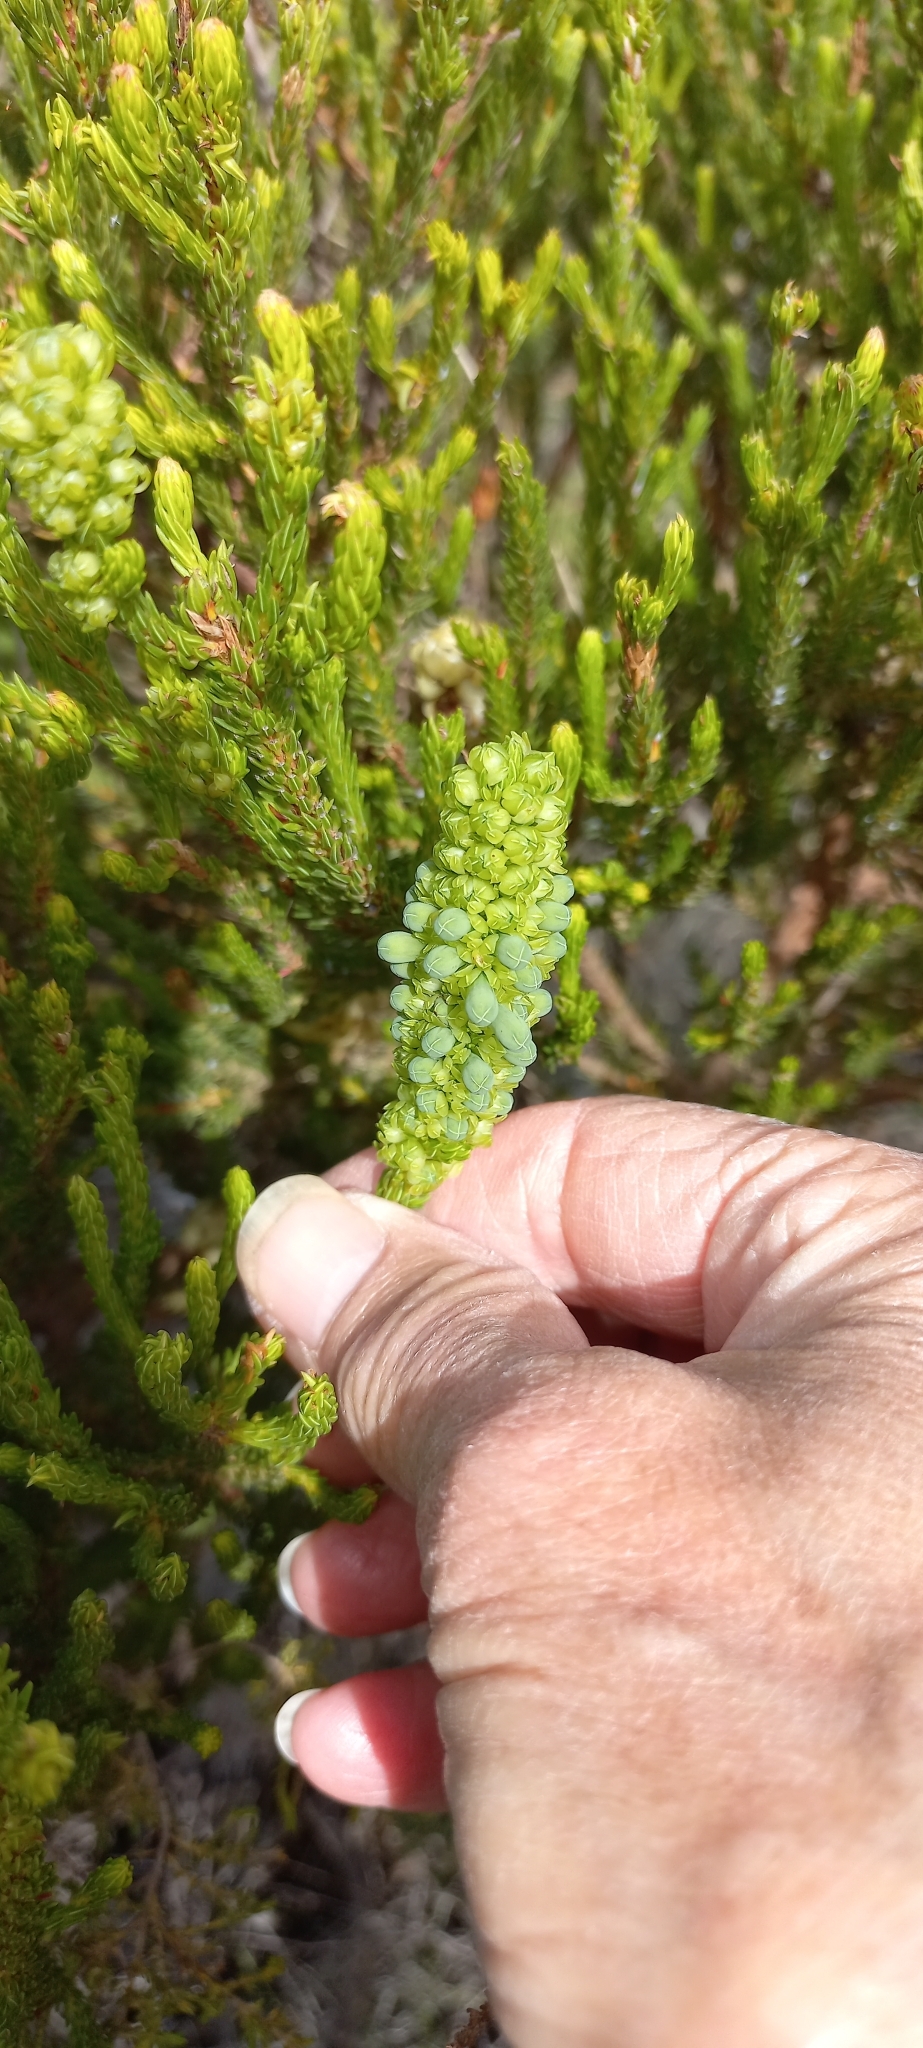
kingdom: Plantae
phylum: Tracheophyta
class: Magnoliopsida
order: Ericales
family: Ericaceae
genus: Erica
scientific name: Erica sessiliflora
